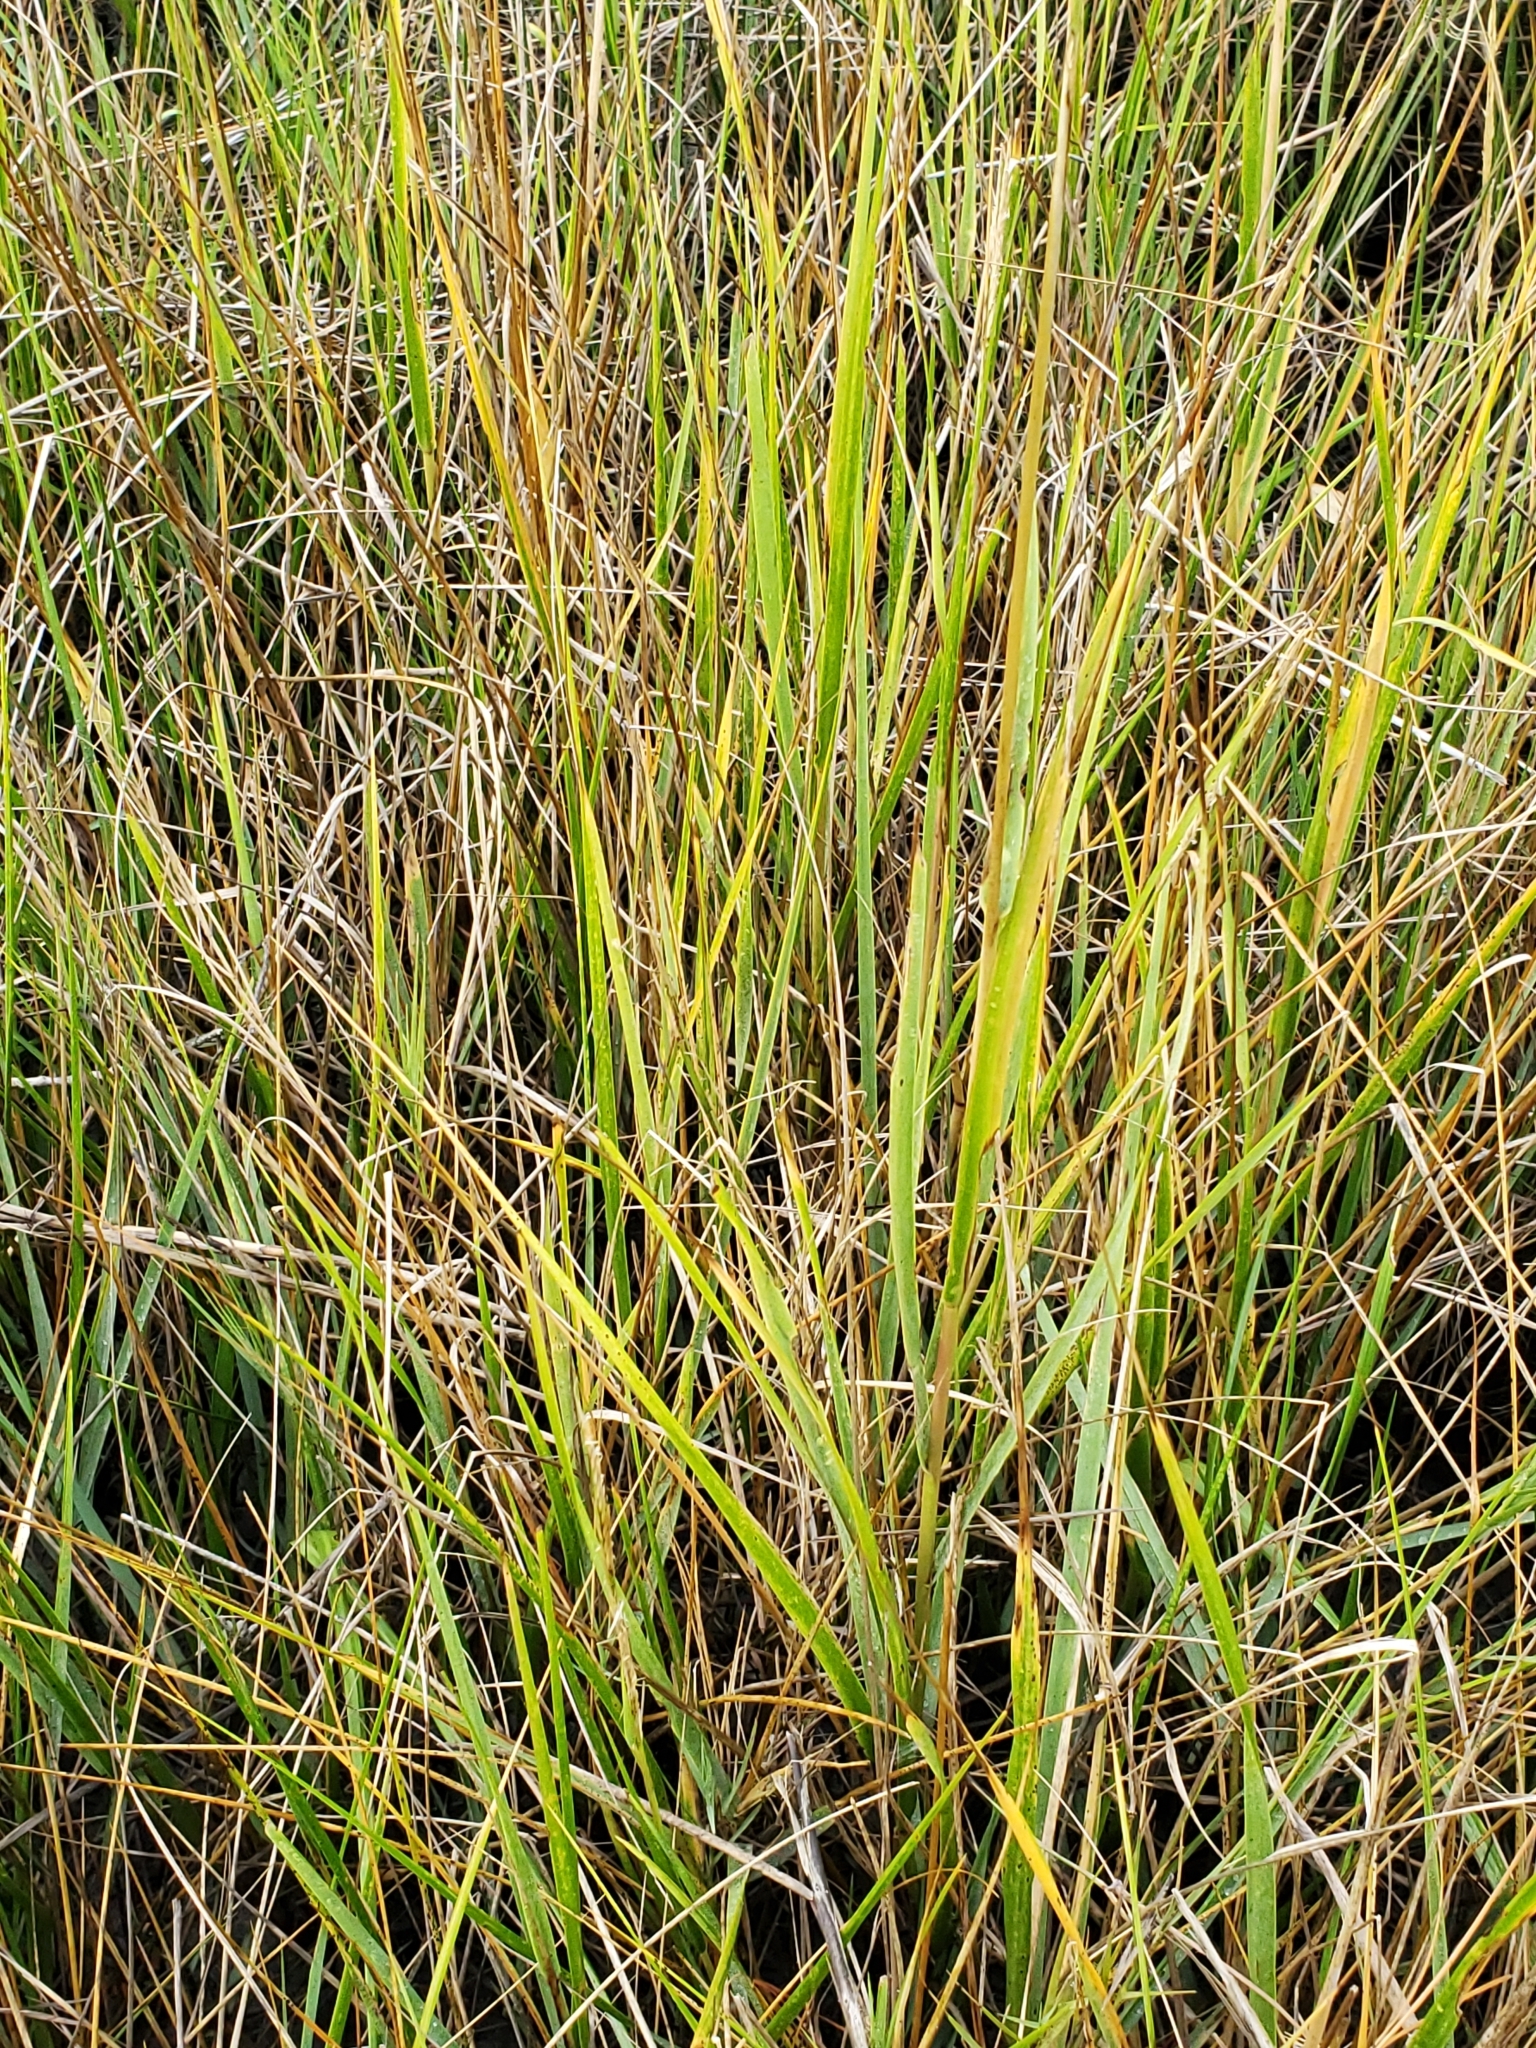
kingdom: Plantae
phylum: Tracheophyta
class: Liliopsida
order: Poales
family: Poaceae
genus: Sporobolus
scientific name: Sporobolus alterniflorus
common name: Atlantic cordgrass
